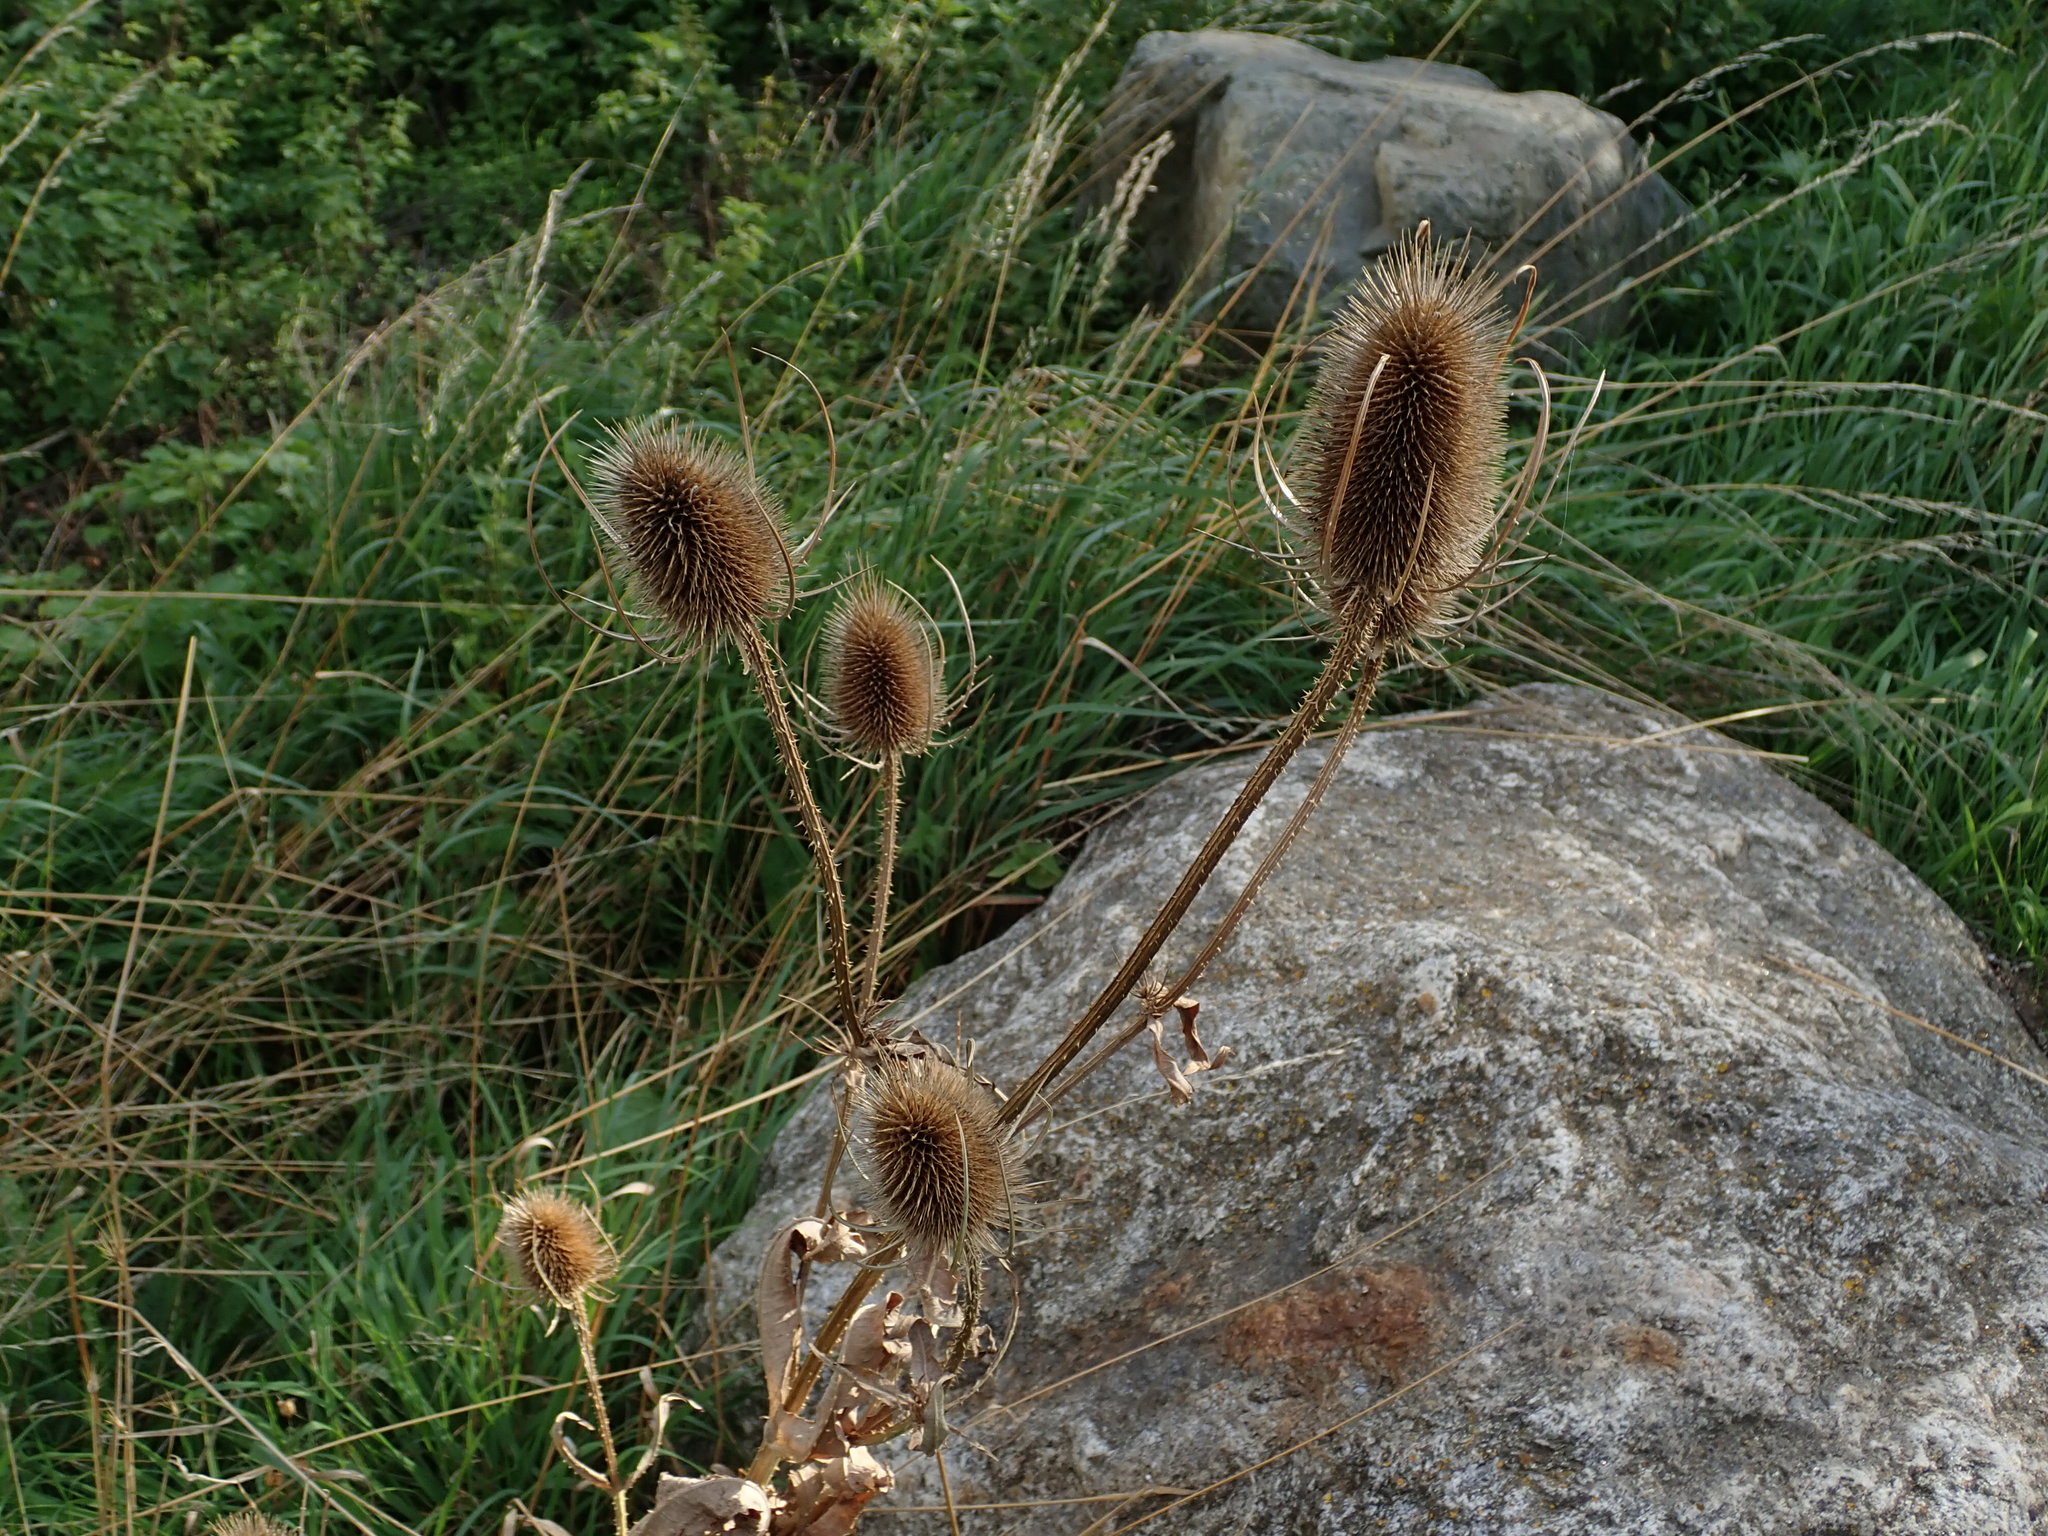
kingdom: Plantae
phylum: Tracheophyta
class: Magnoliopsida
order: Dipsacales
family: Caprifoliaceae
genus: Dipsacus
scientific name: Dipsacus fullonum
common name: Teasel
